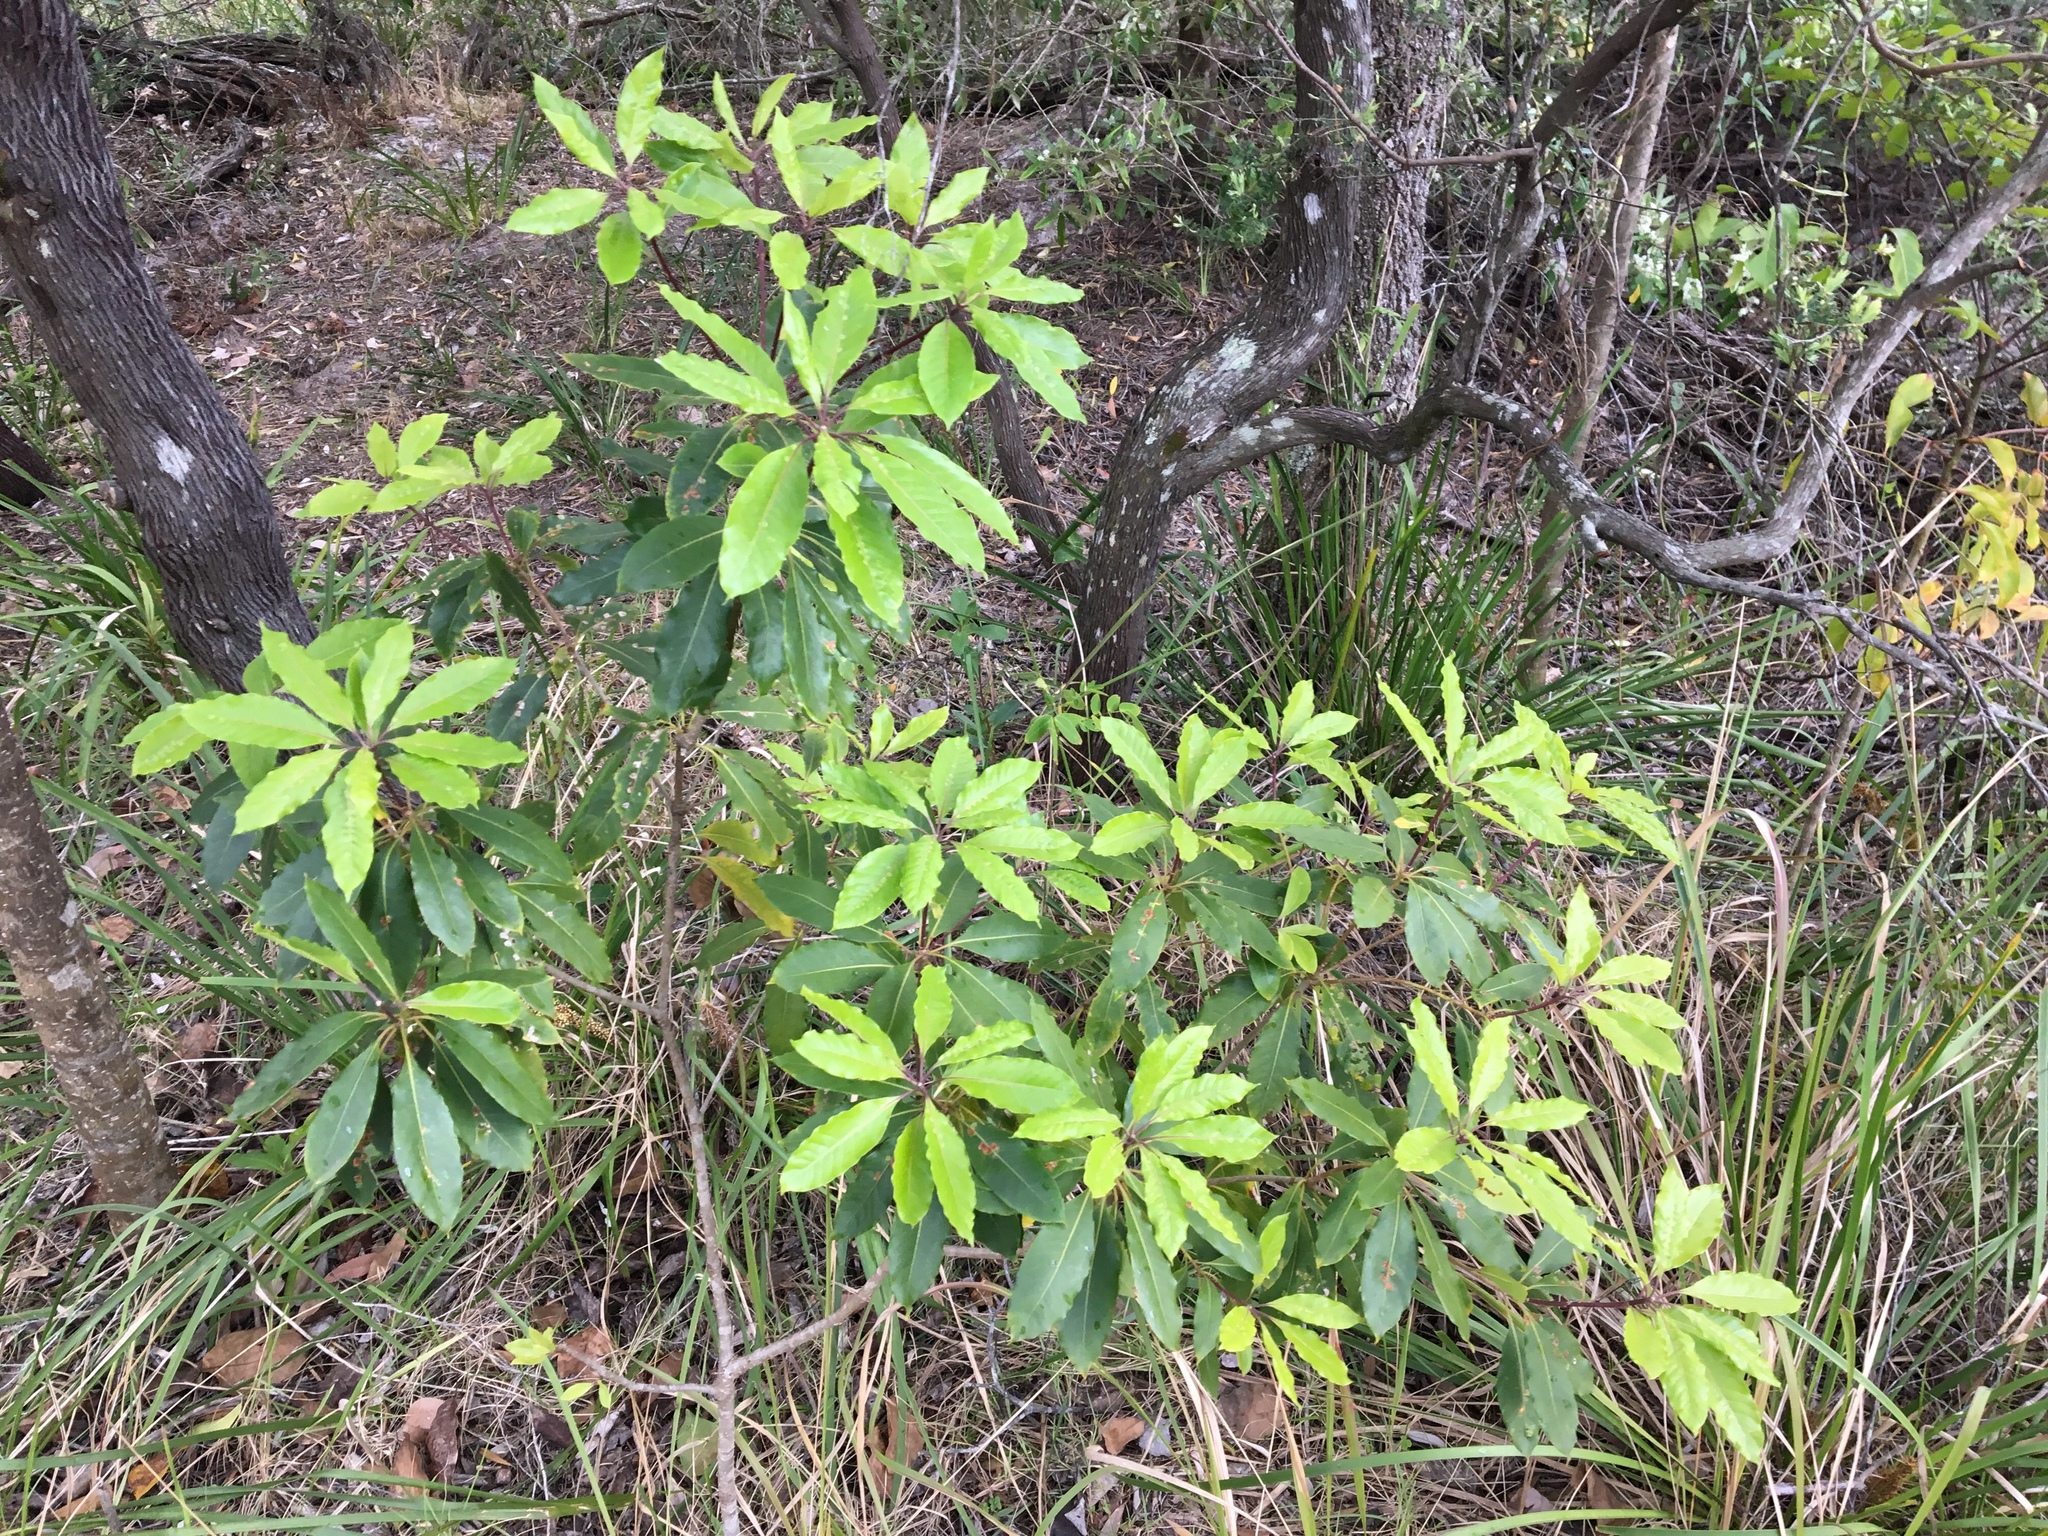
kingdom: Plantae
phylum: Tracheophyta
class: Magnoliopsida
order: Apiales
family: Pittosporaceae
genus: Pittosporum
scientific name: Pittosporum undulatum
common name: Australian cheesewood
